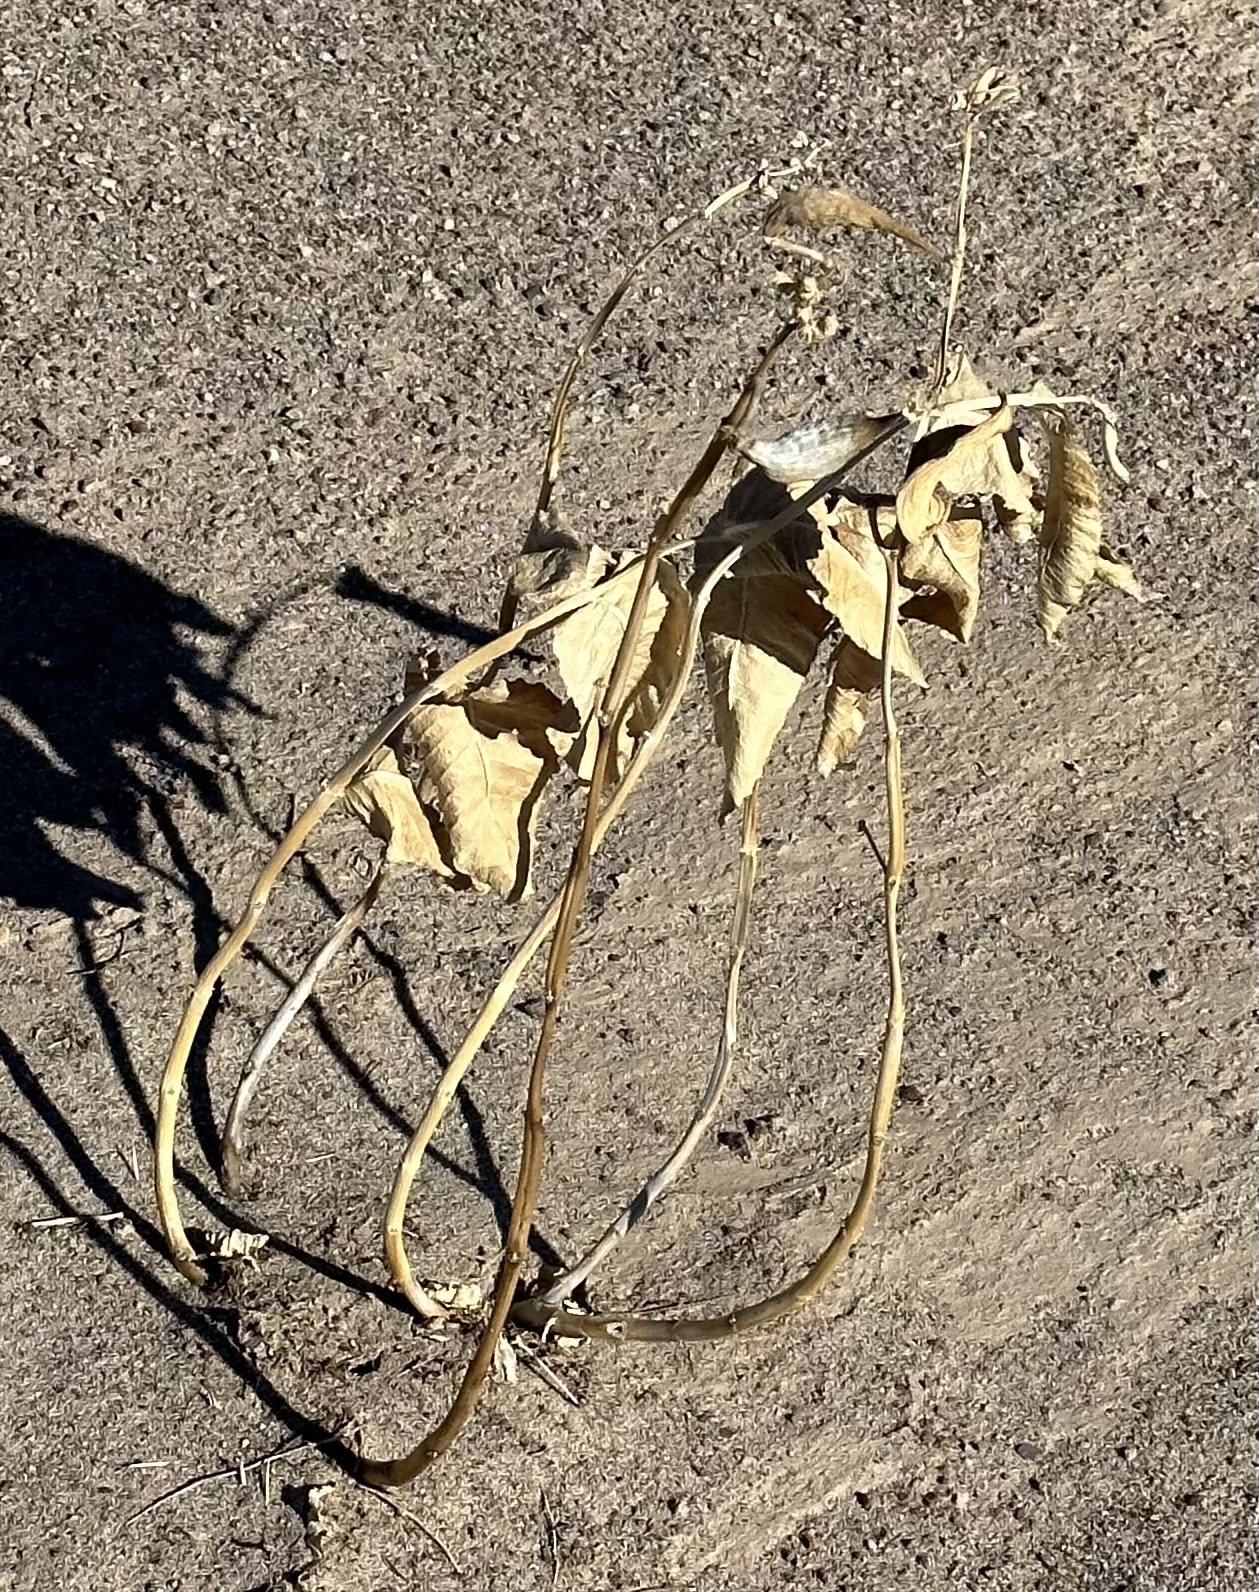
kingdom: Plantae
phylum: Tracheophyta
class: Magnoliopsida
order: Gentianales
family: Apocynaceae
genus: Asclepias
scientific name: Asclepias erosa
